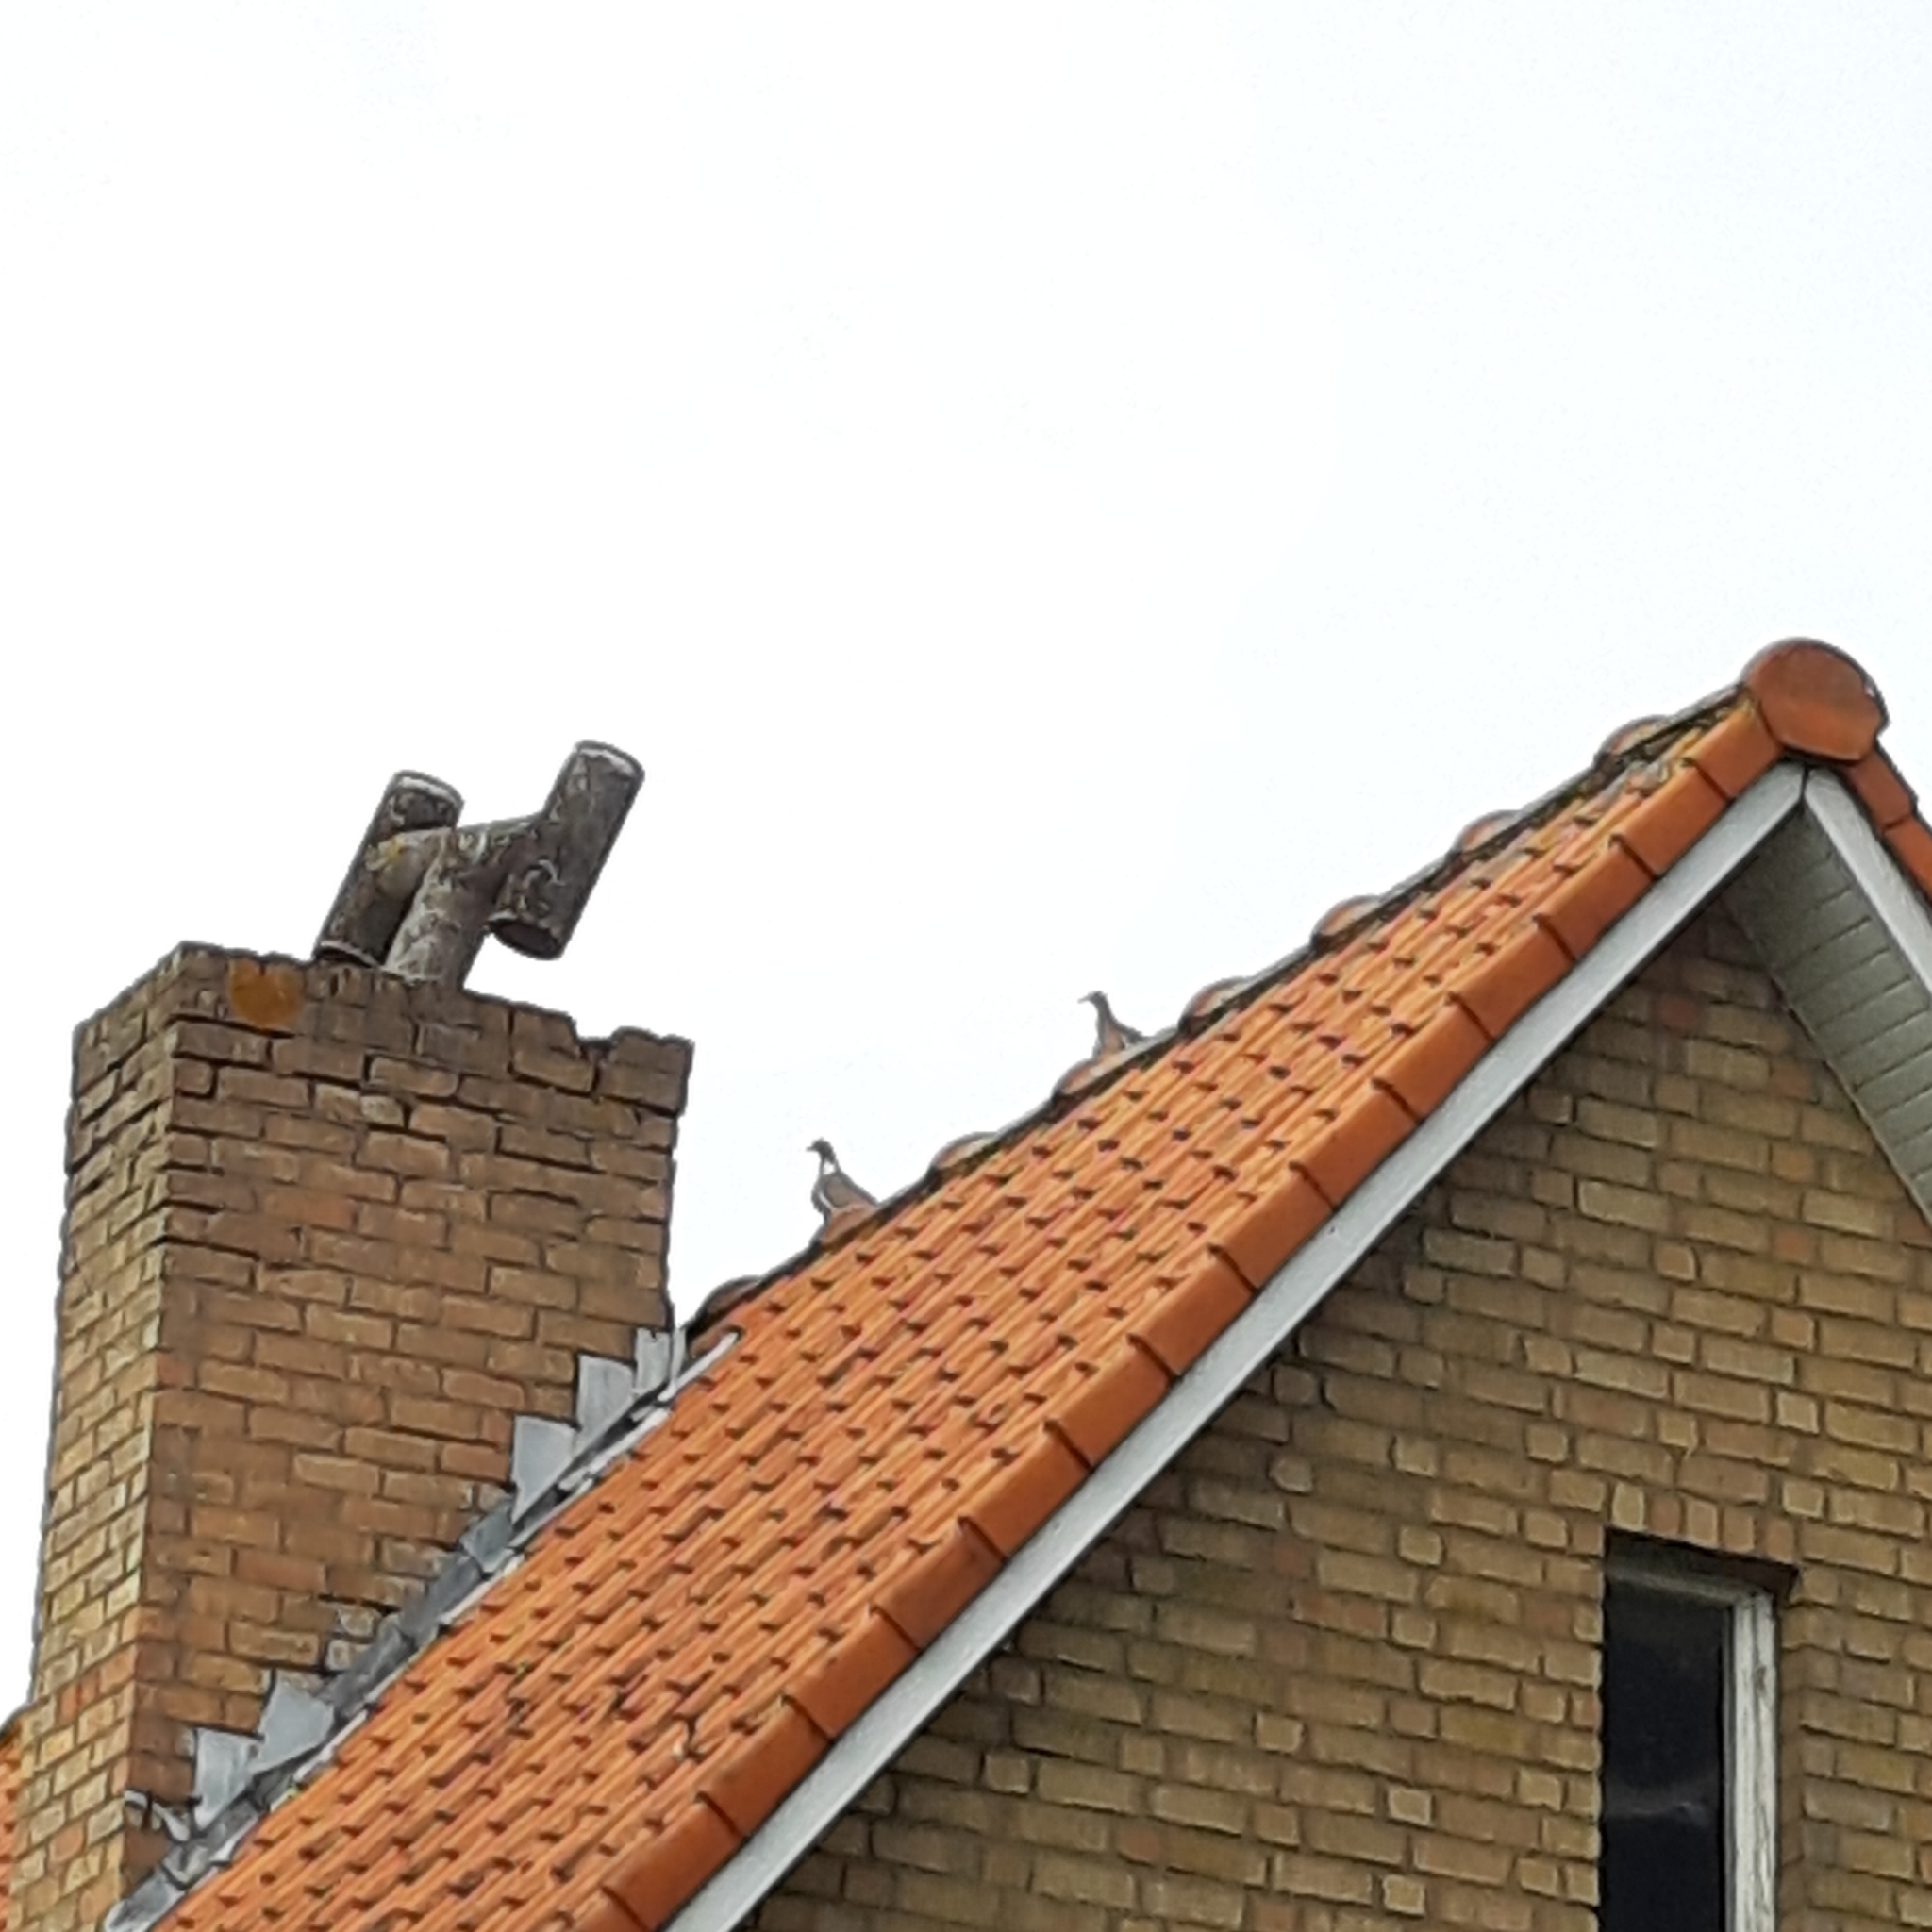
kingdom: Animalia
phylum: Chordata
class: Aves
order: Columbiformes
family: Columbidae
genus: Columba
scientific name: Columba palumbus
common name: Common wood pigeon
